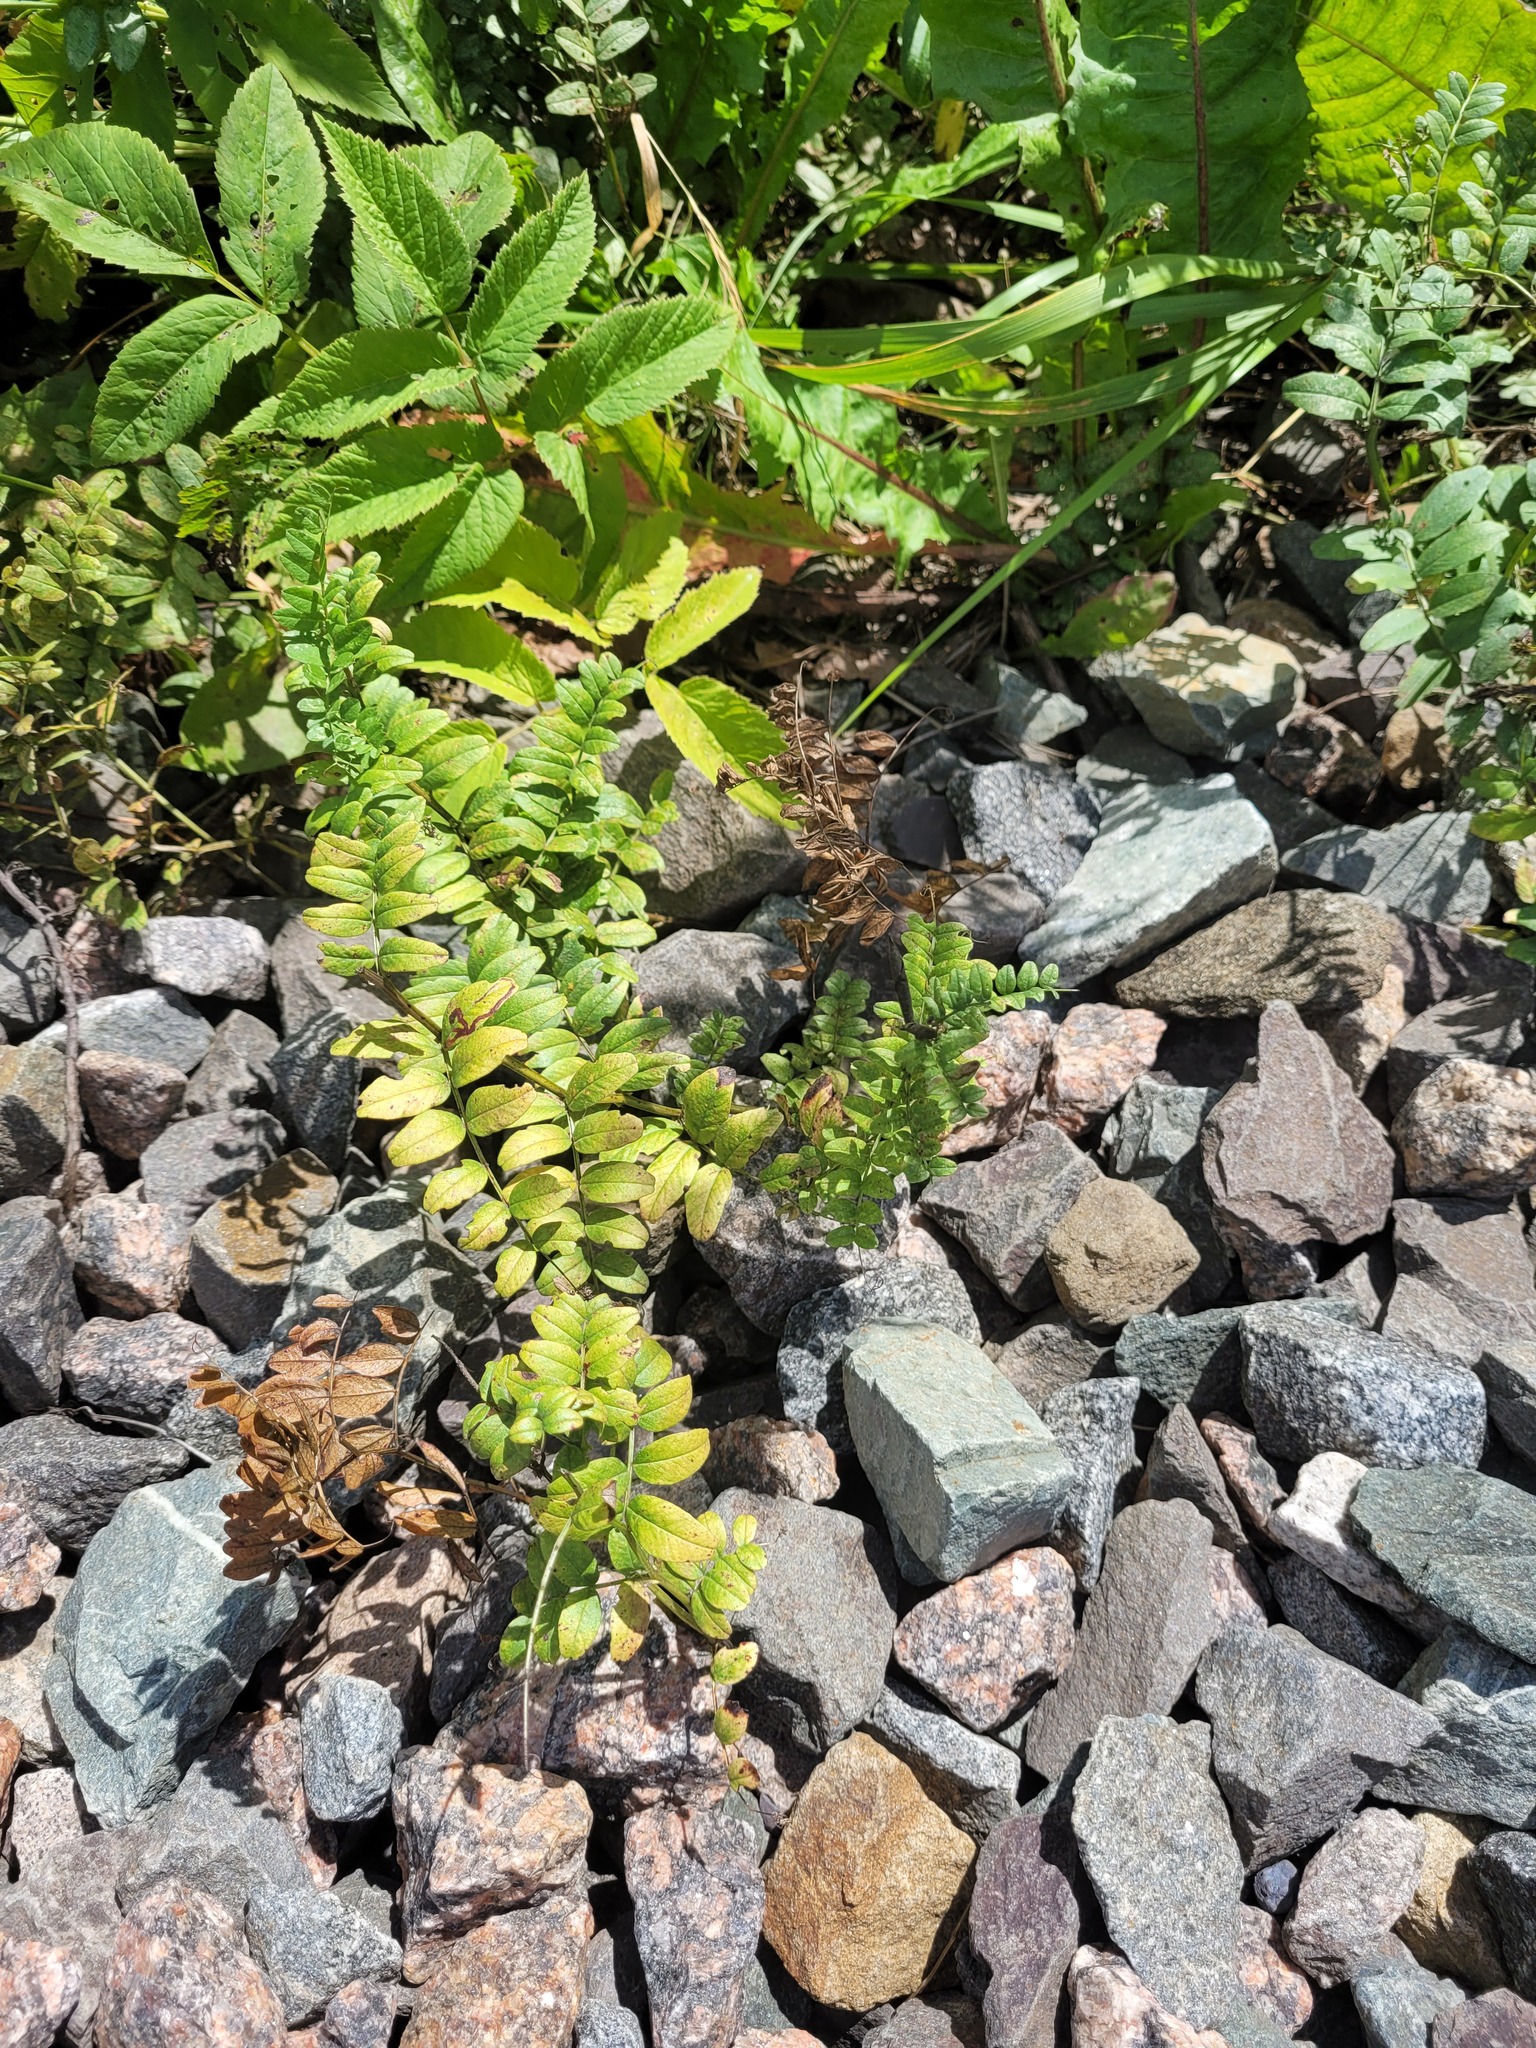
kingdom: Plantae
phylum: Tracheophyta
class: Magnoliopsida
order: Fabales
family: Fabaceae
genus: Vicia
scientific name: Vicia sepium
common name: Bush vetch
